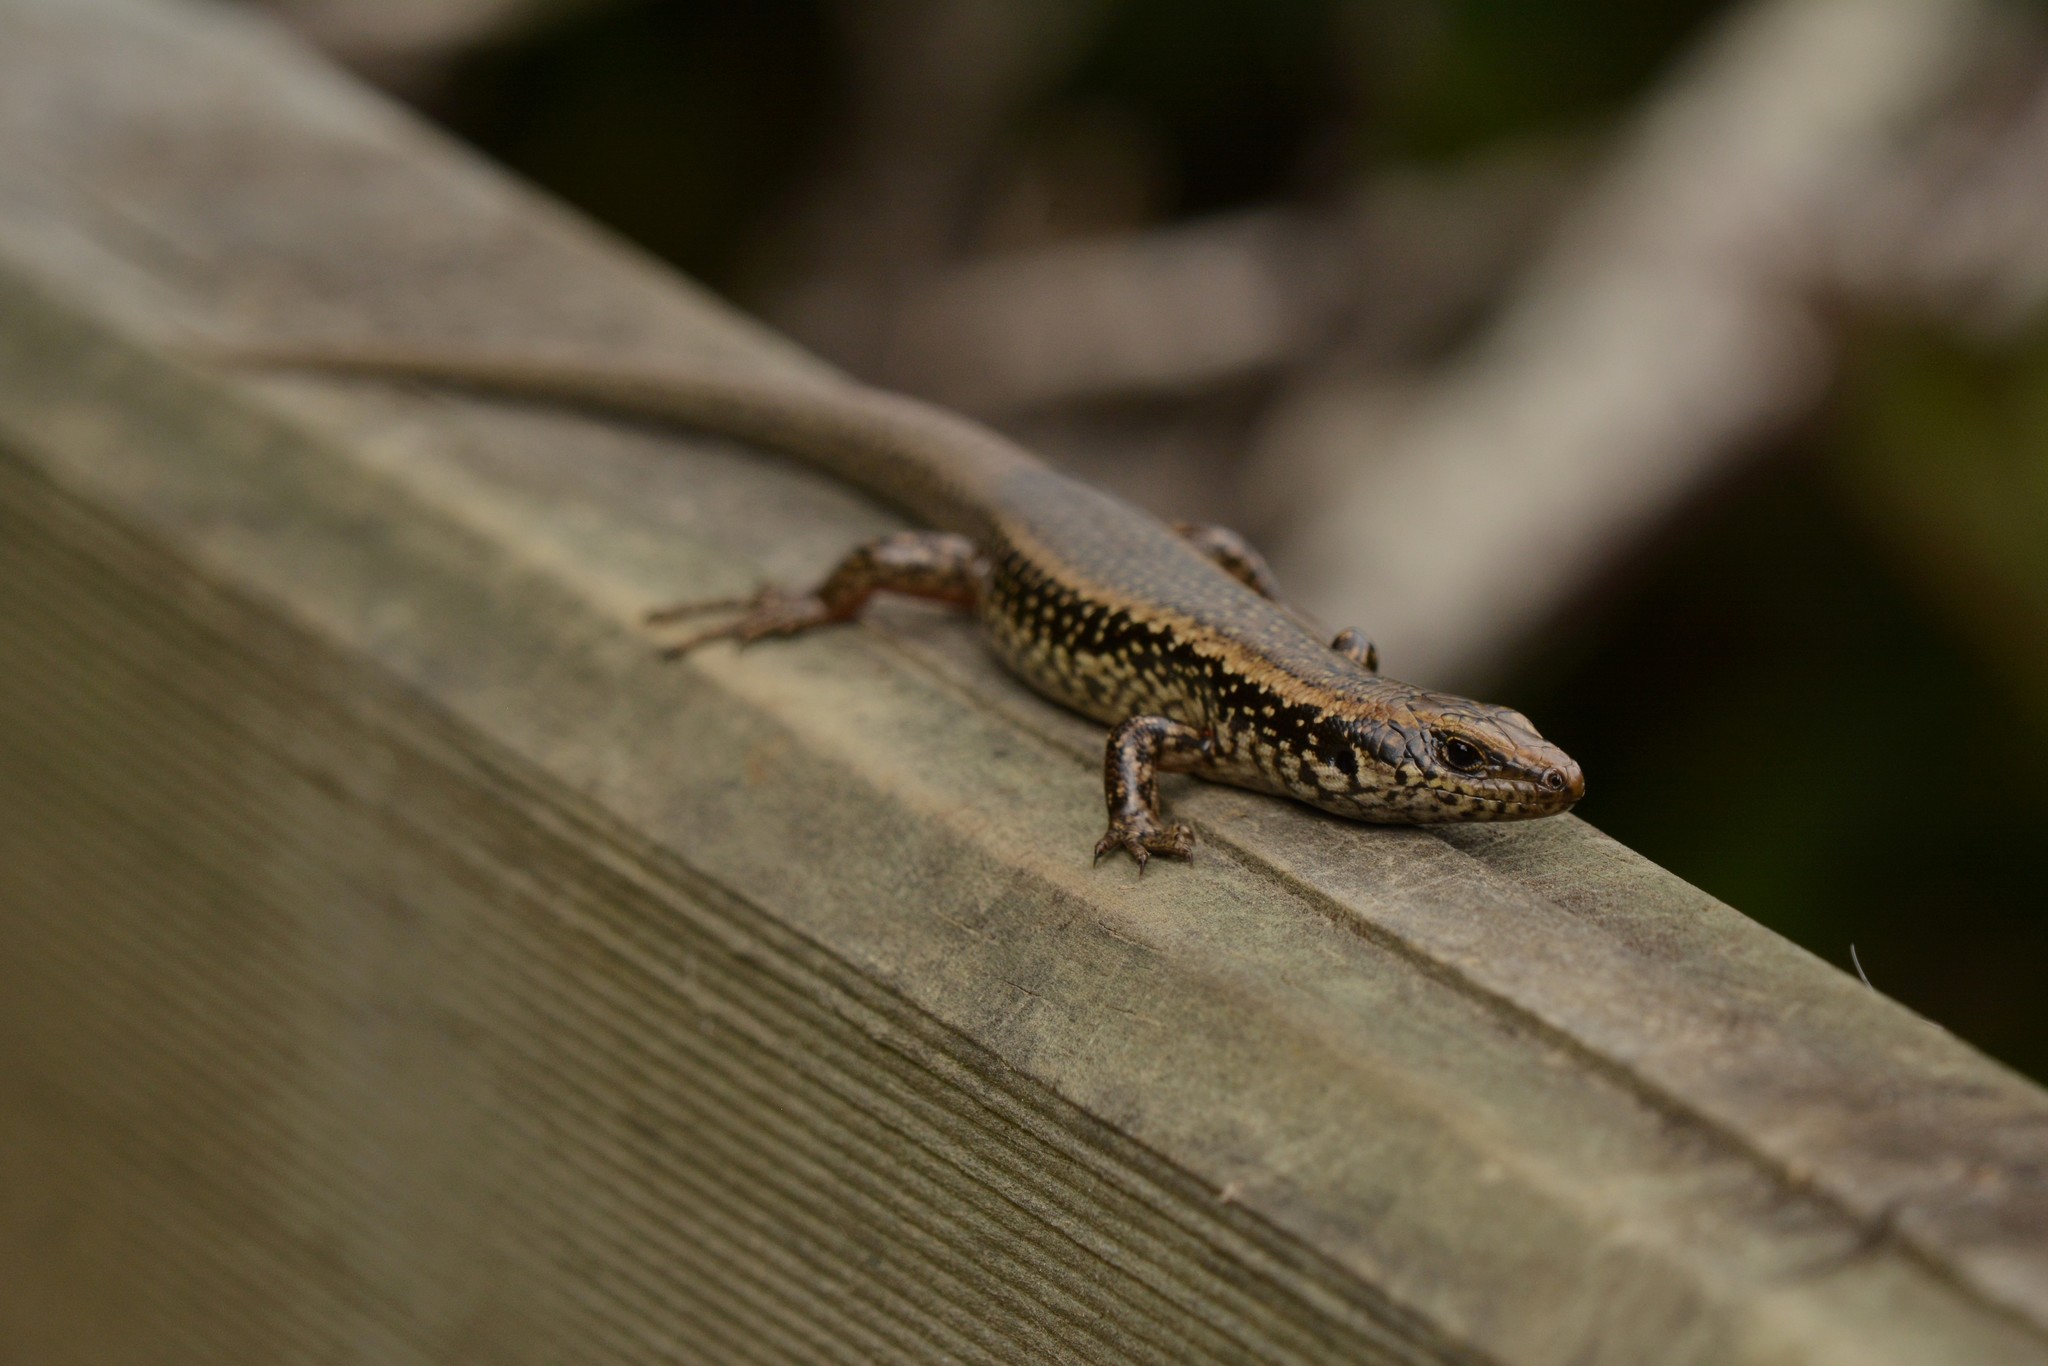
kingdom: Animalia
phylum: Chordata
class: Squamata
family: Scincidae
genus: Oligosoma
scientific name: Oligosoma kokowai
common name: Northern spotted skink
